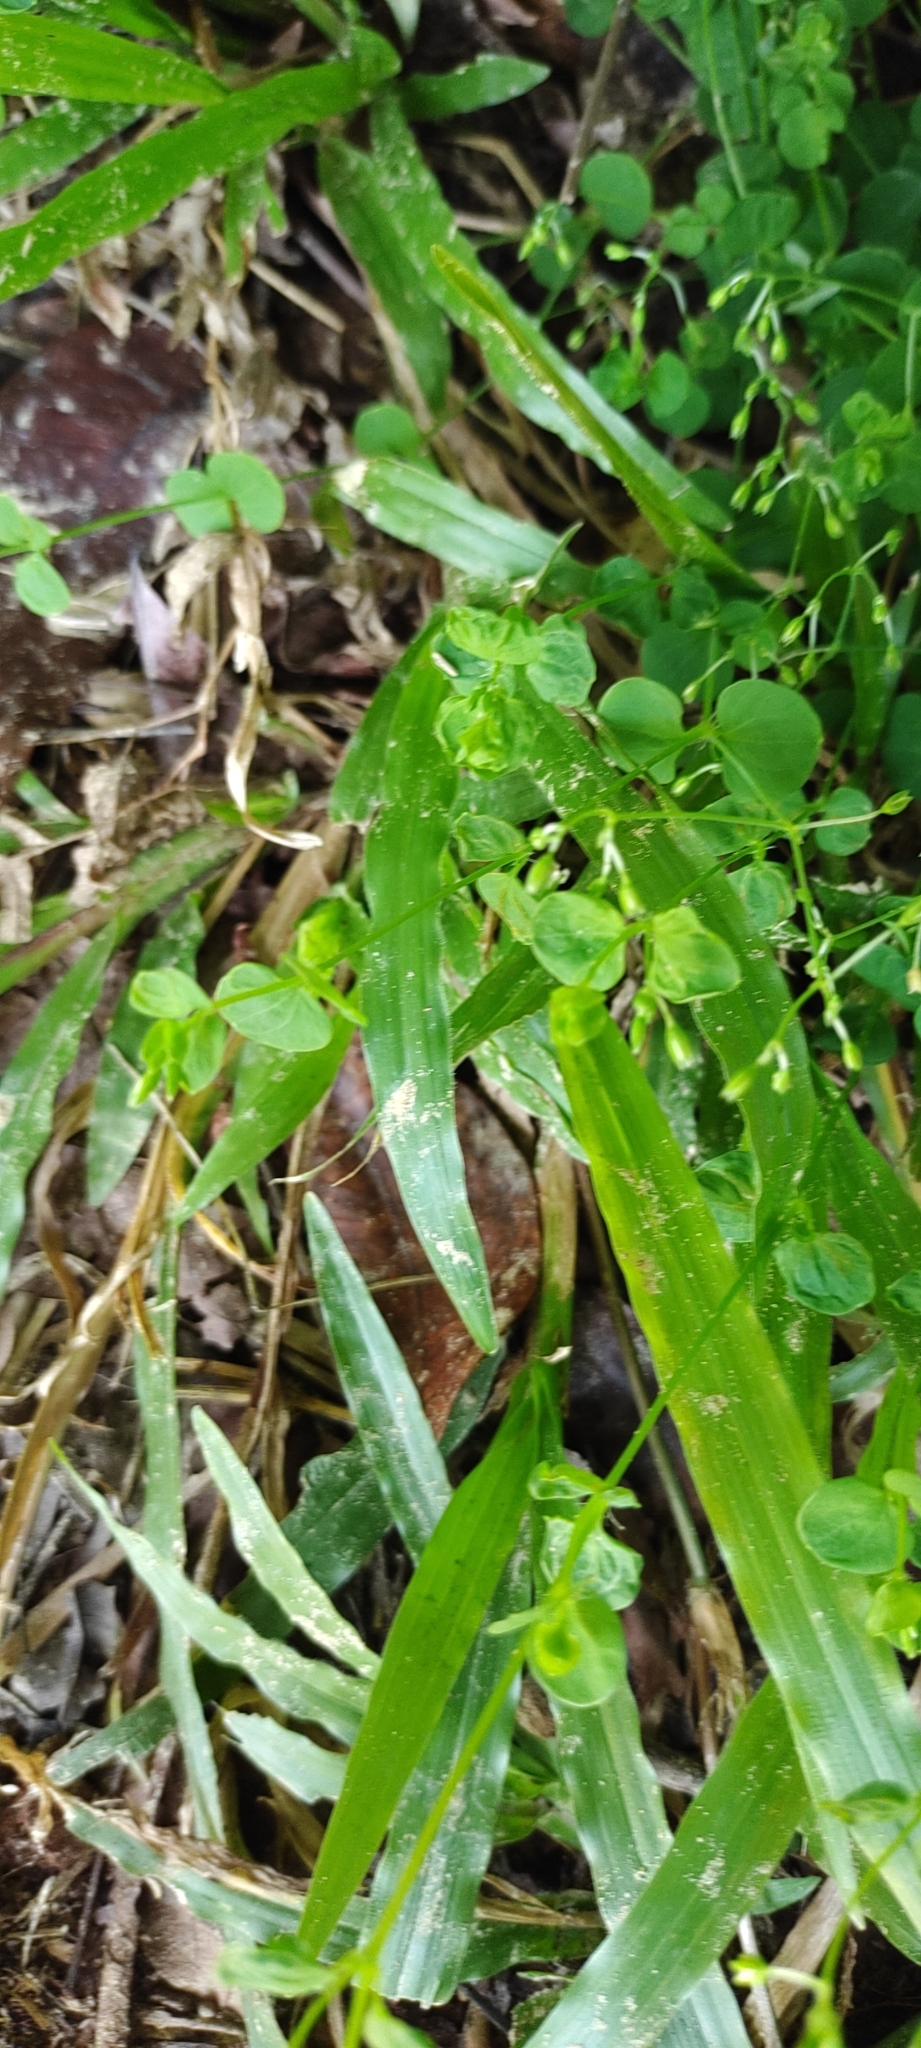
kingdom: Plantae
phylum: Tracheophyta
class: Magnoliopsida
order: Caryophyllales
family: Caryophyllaceae
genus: Drymaria
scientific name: Drymaria cordata
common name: Whitesnow
